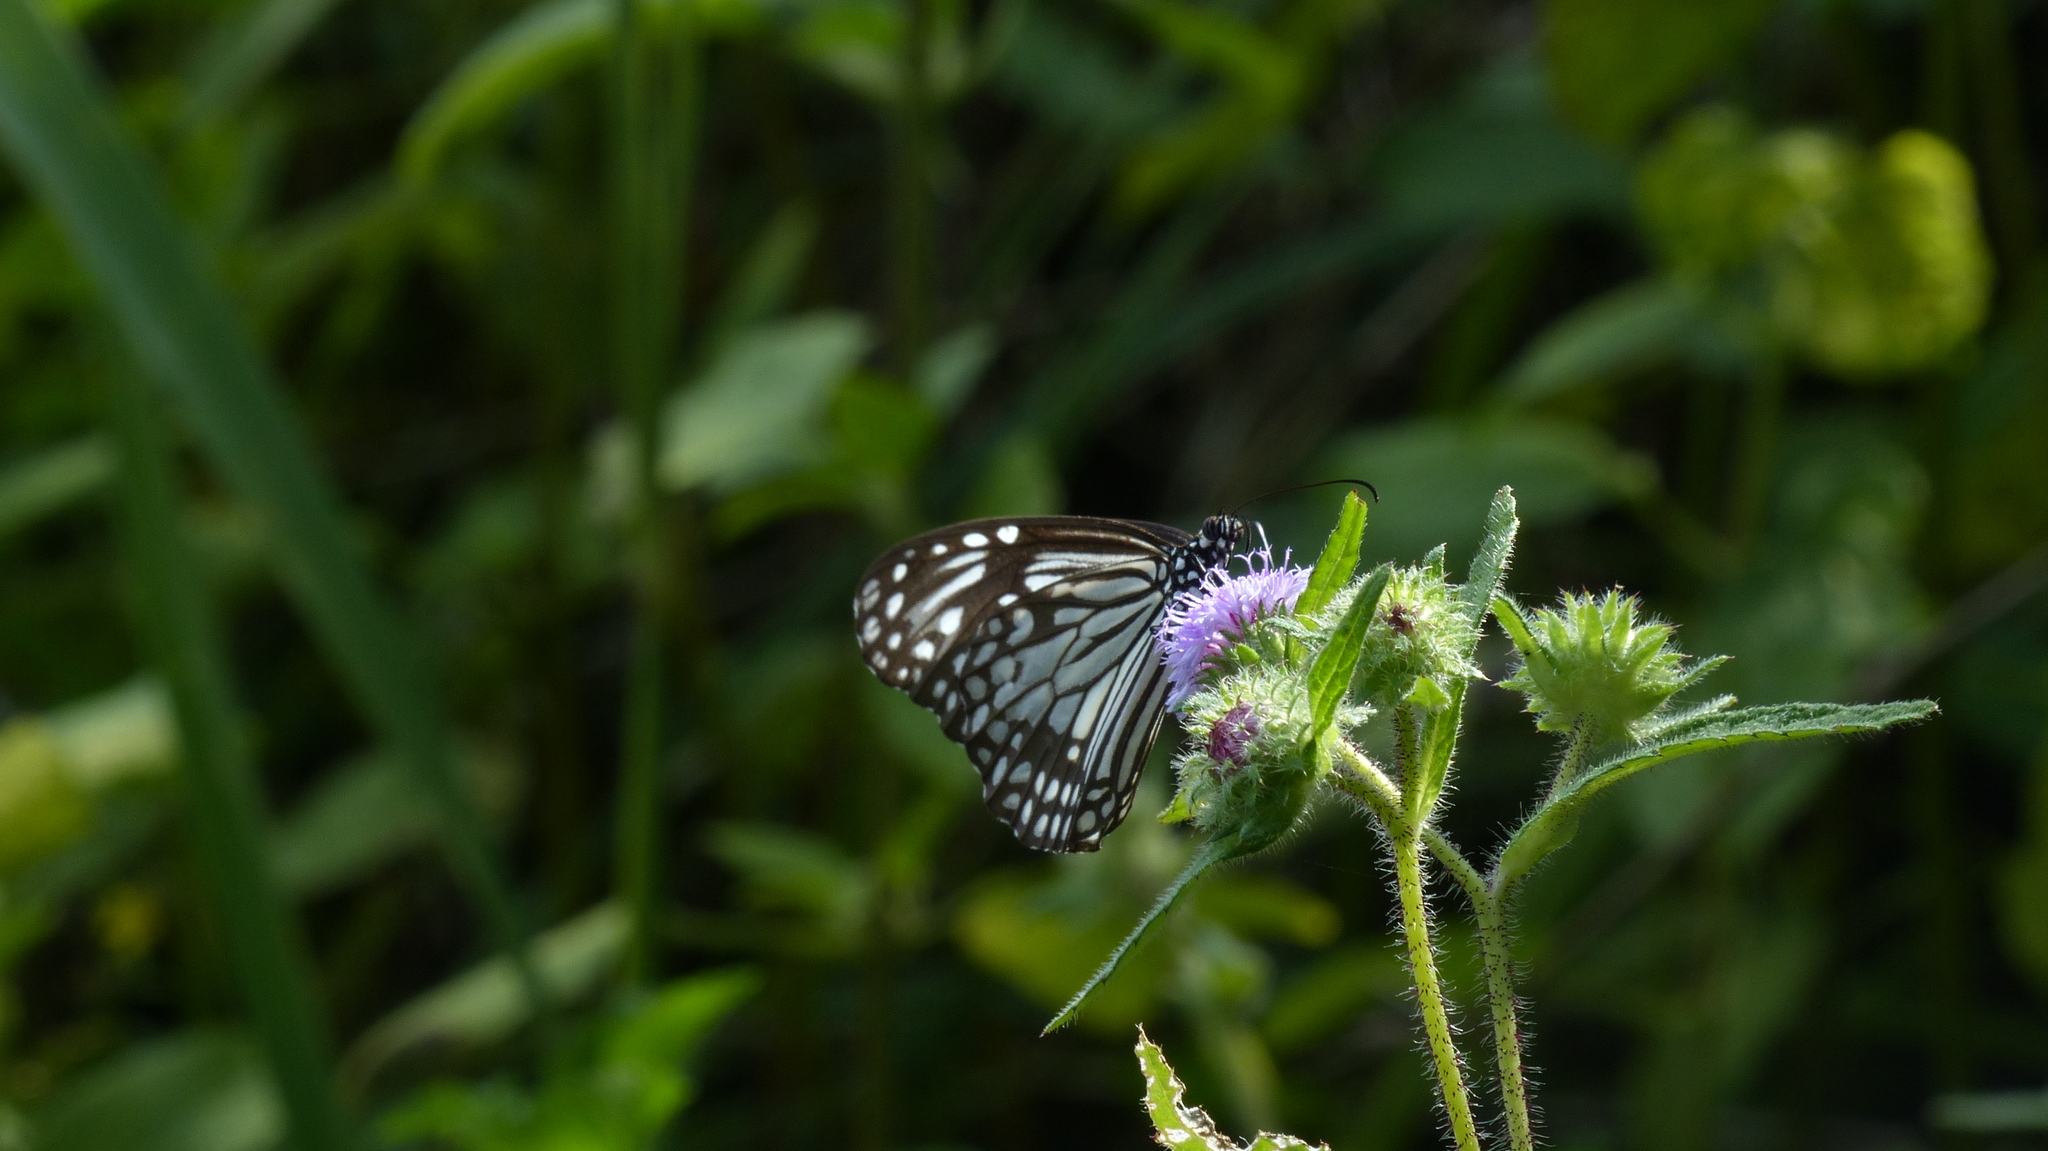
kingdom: Animalia
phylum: Arthropoda
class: Insecta
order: Lepidoptera
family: Nymphalidae
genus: Parantica
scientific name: Parantica aglea
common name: Glassy tiger
